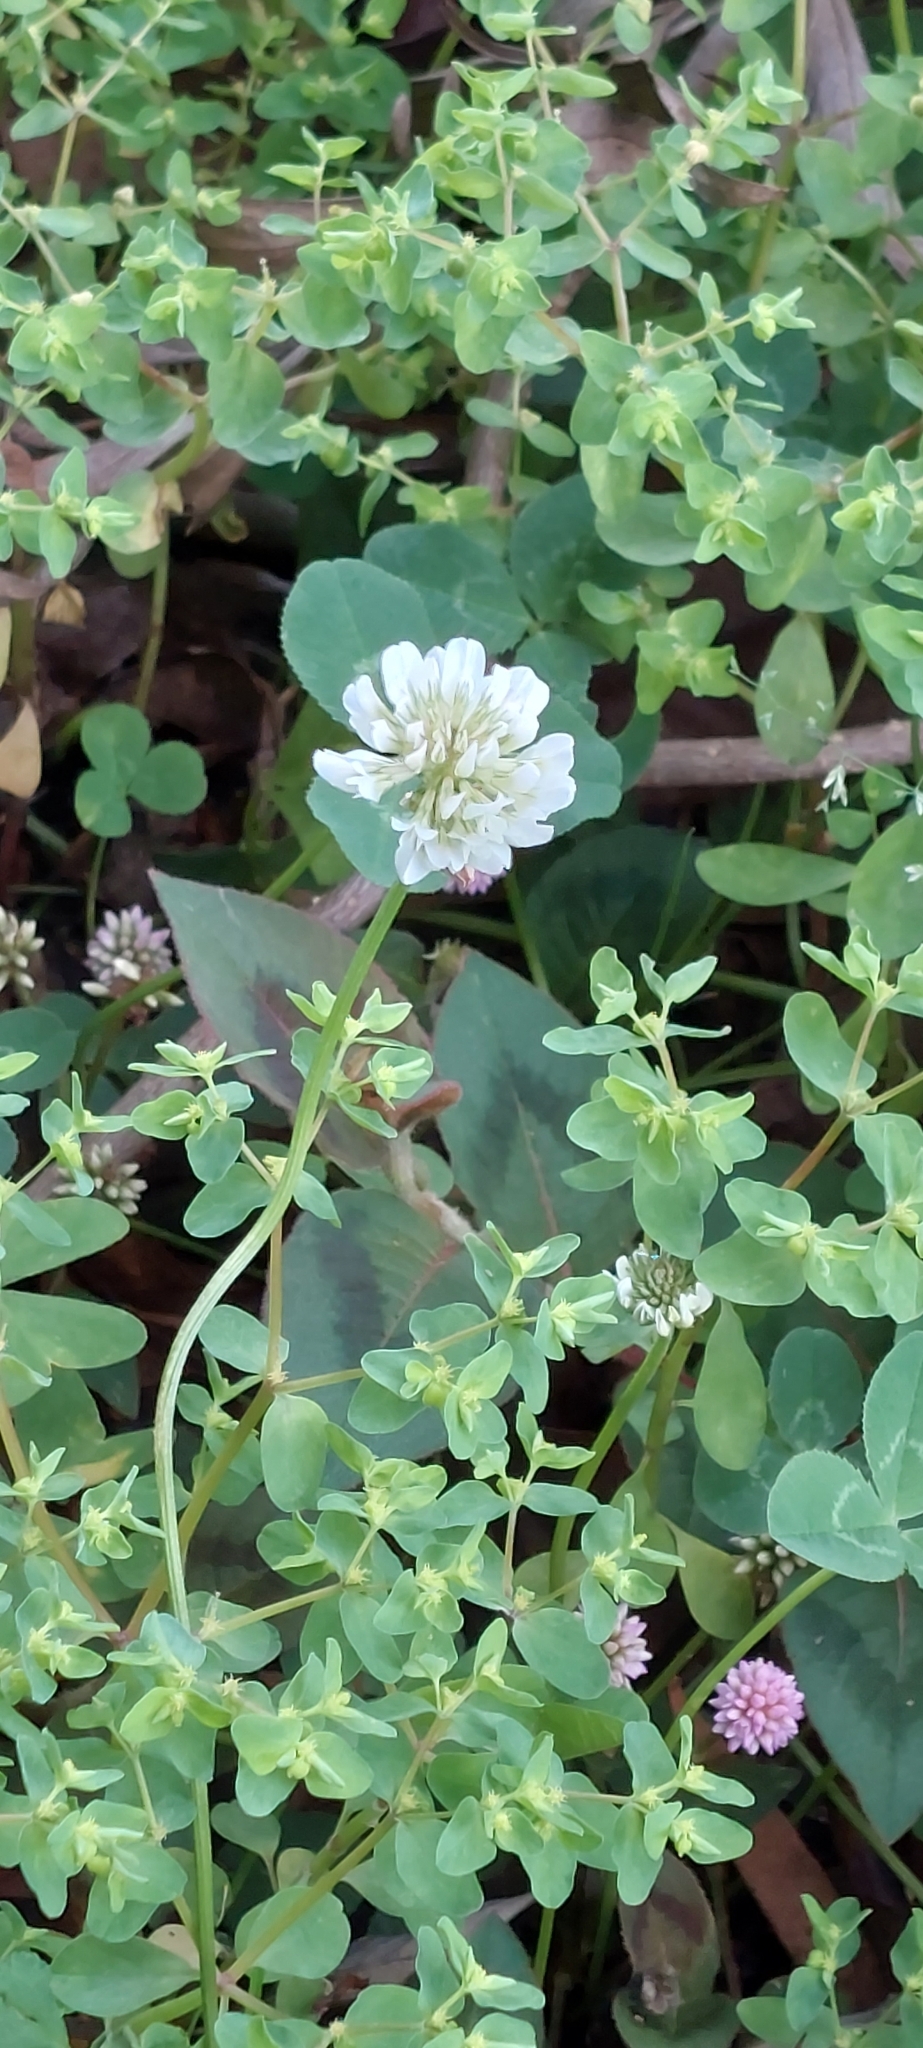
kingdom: Plantae
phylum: Tracheophyta
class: Magnoliopsida
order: Fabales
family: Fabaceae
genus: Trifolium
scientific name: Trifolium repens
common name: White clover
